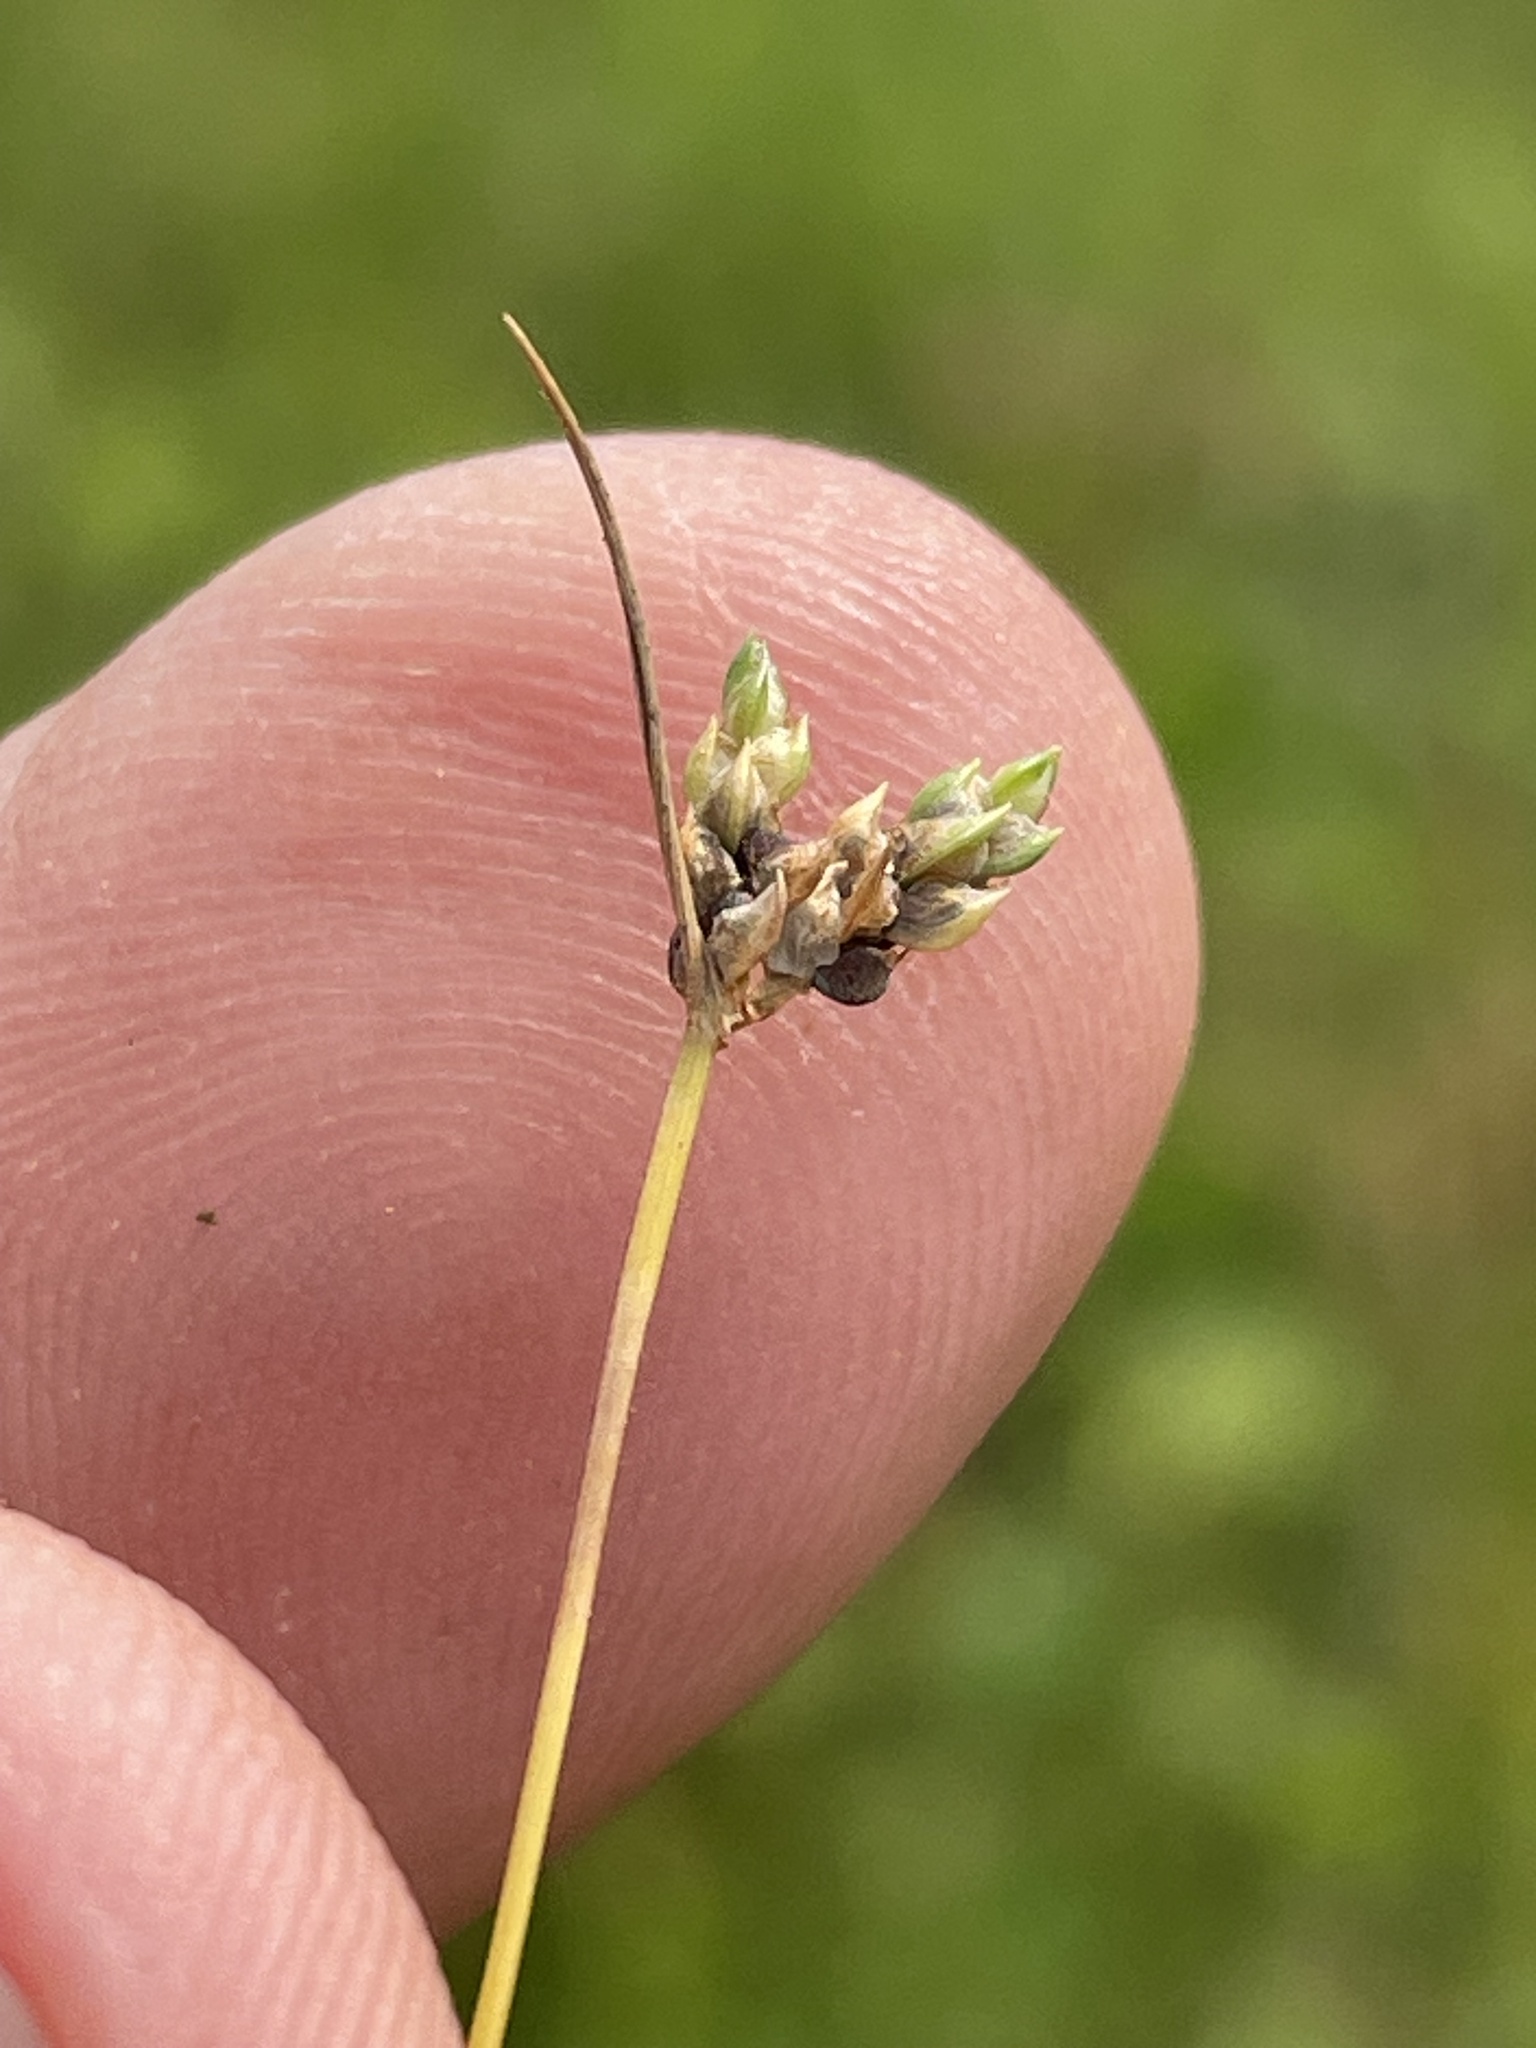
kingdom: Plantae
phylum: Tracheophyta
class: Liliopsida
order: Poales
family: Cyperaceae
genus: Isolepis
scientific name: Isolepis carinata
